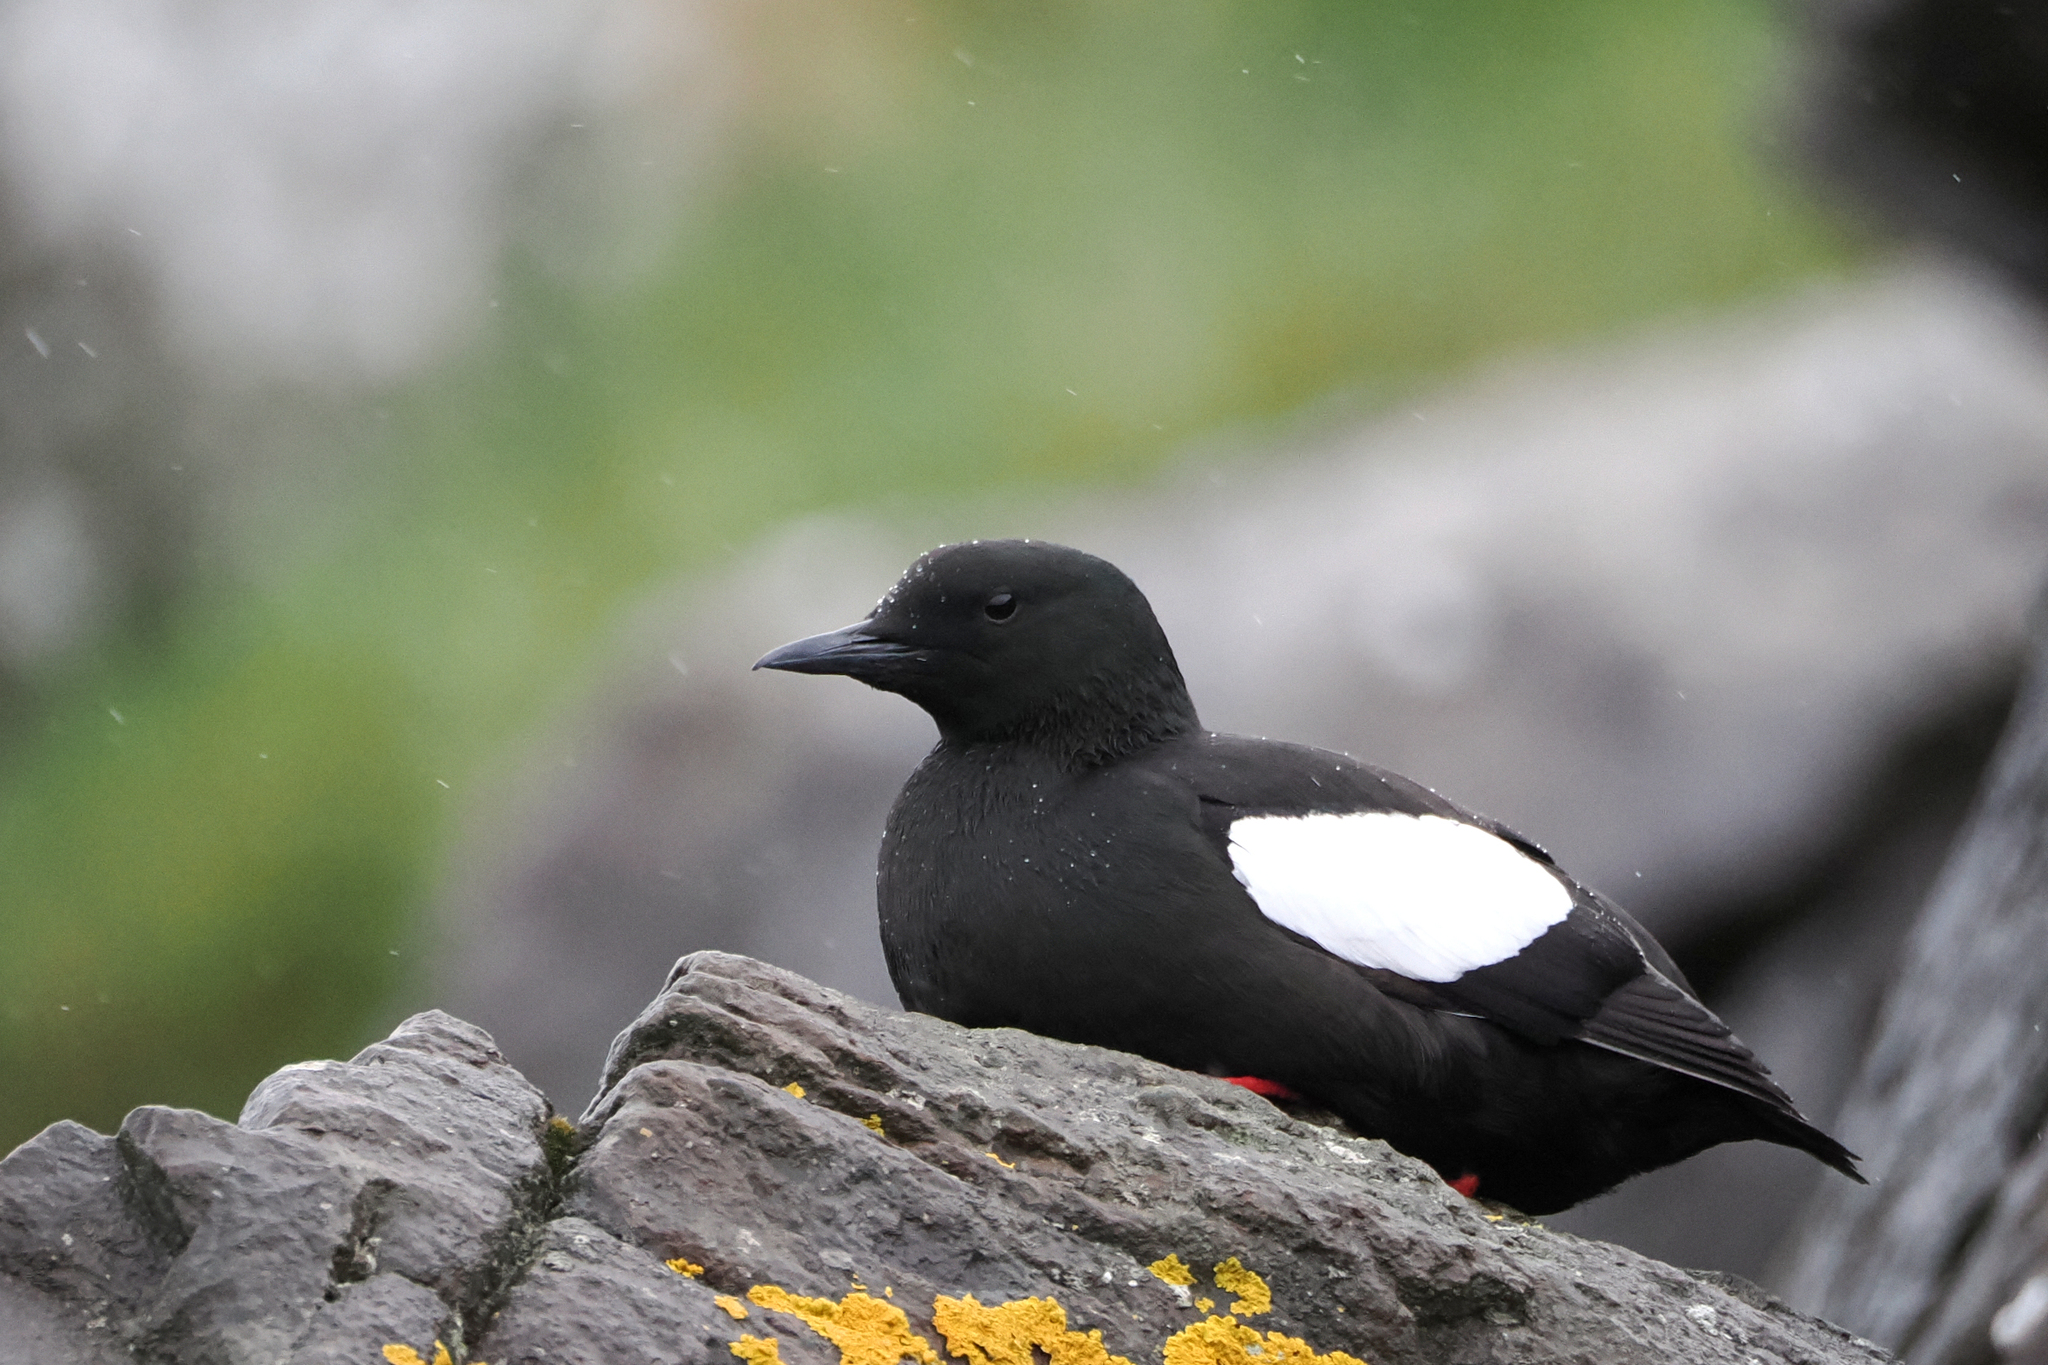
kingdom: Animalia
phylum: Chordata
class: Aves
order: Charadriiformes
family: Alcidae
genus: Cepphus
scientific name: Cepphus grylle
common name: Black guillemot
